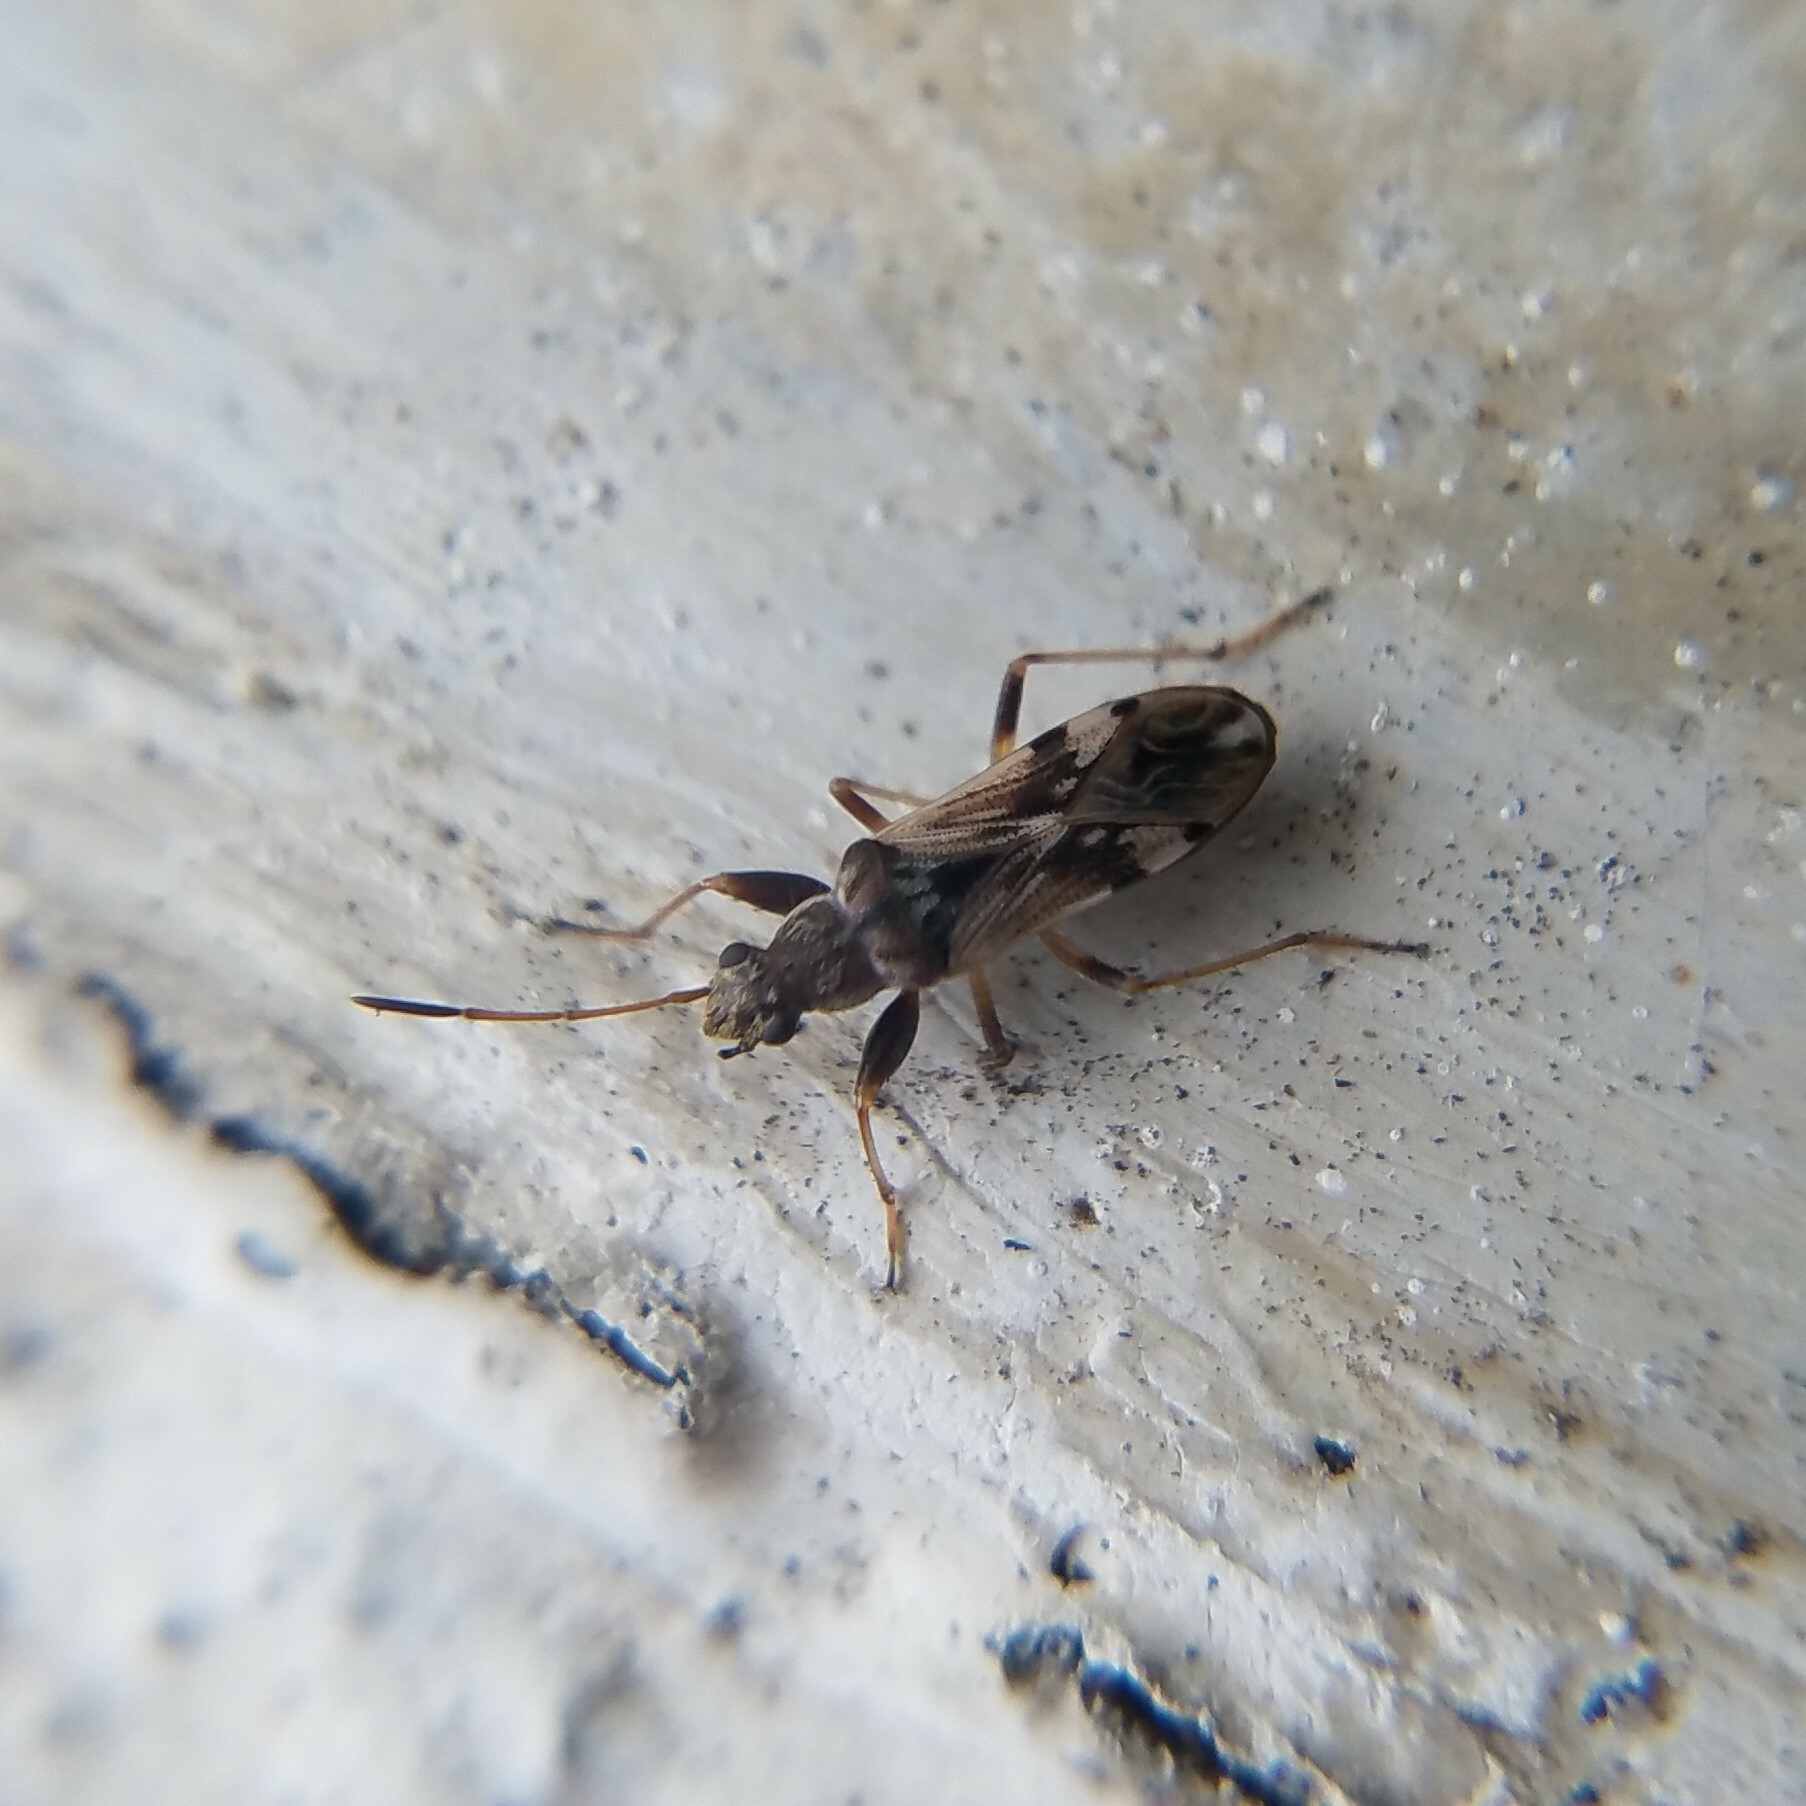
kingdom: Animalia
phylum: Arthropoda
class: Insecta
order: Hemiptera
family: Rhyparochromidae
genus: Neopamera
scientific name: Neopamera bilobata
